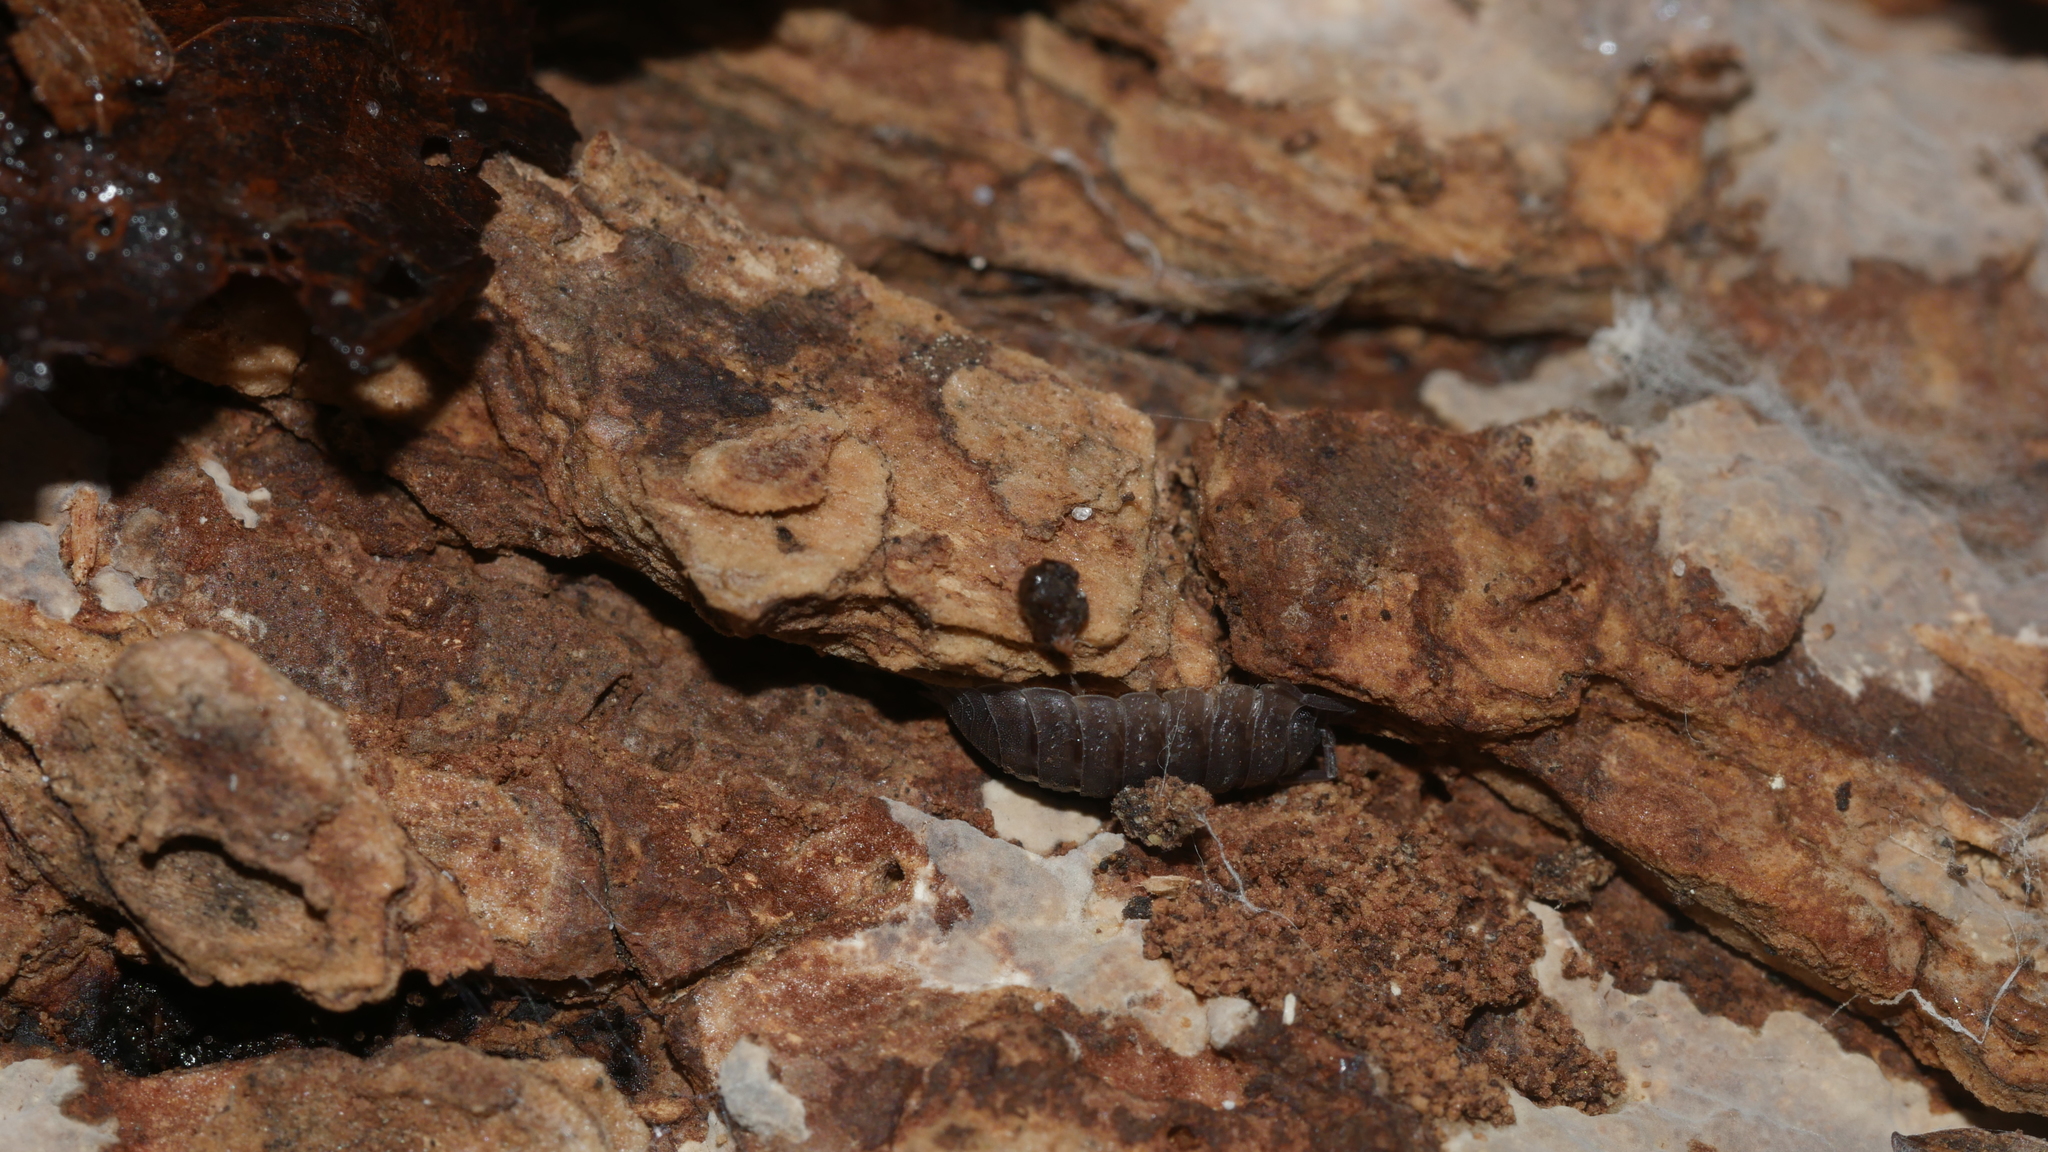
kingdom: Animalia
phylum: Arthropoda
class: Malacostraca
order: Isopoda
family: Porcellionidae
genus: Porcellio
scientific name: Porcellio scaber
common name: Common rough woodlouse
